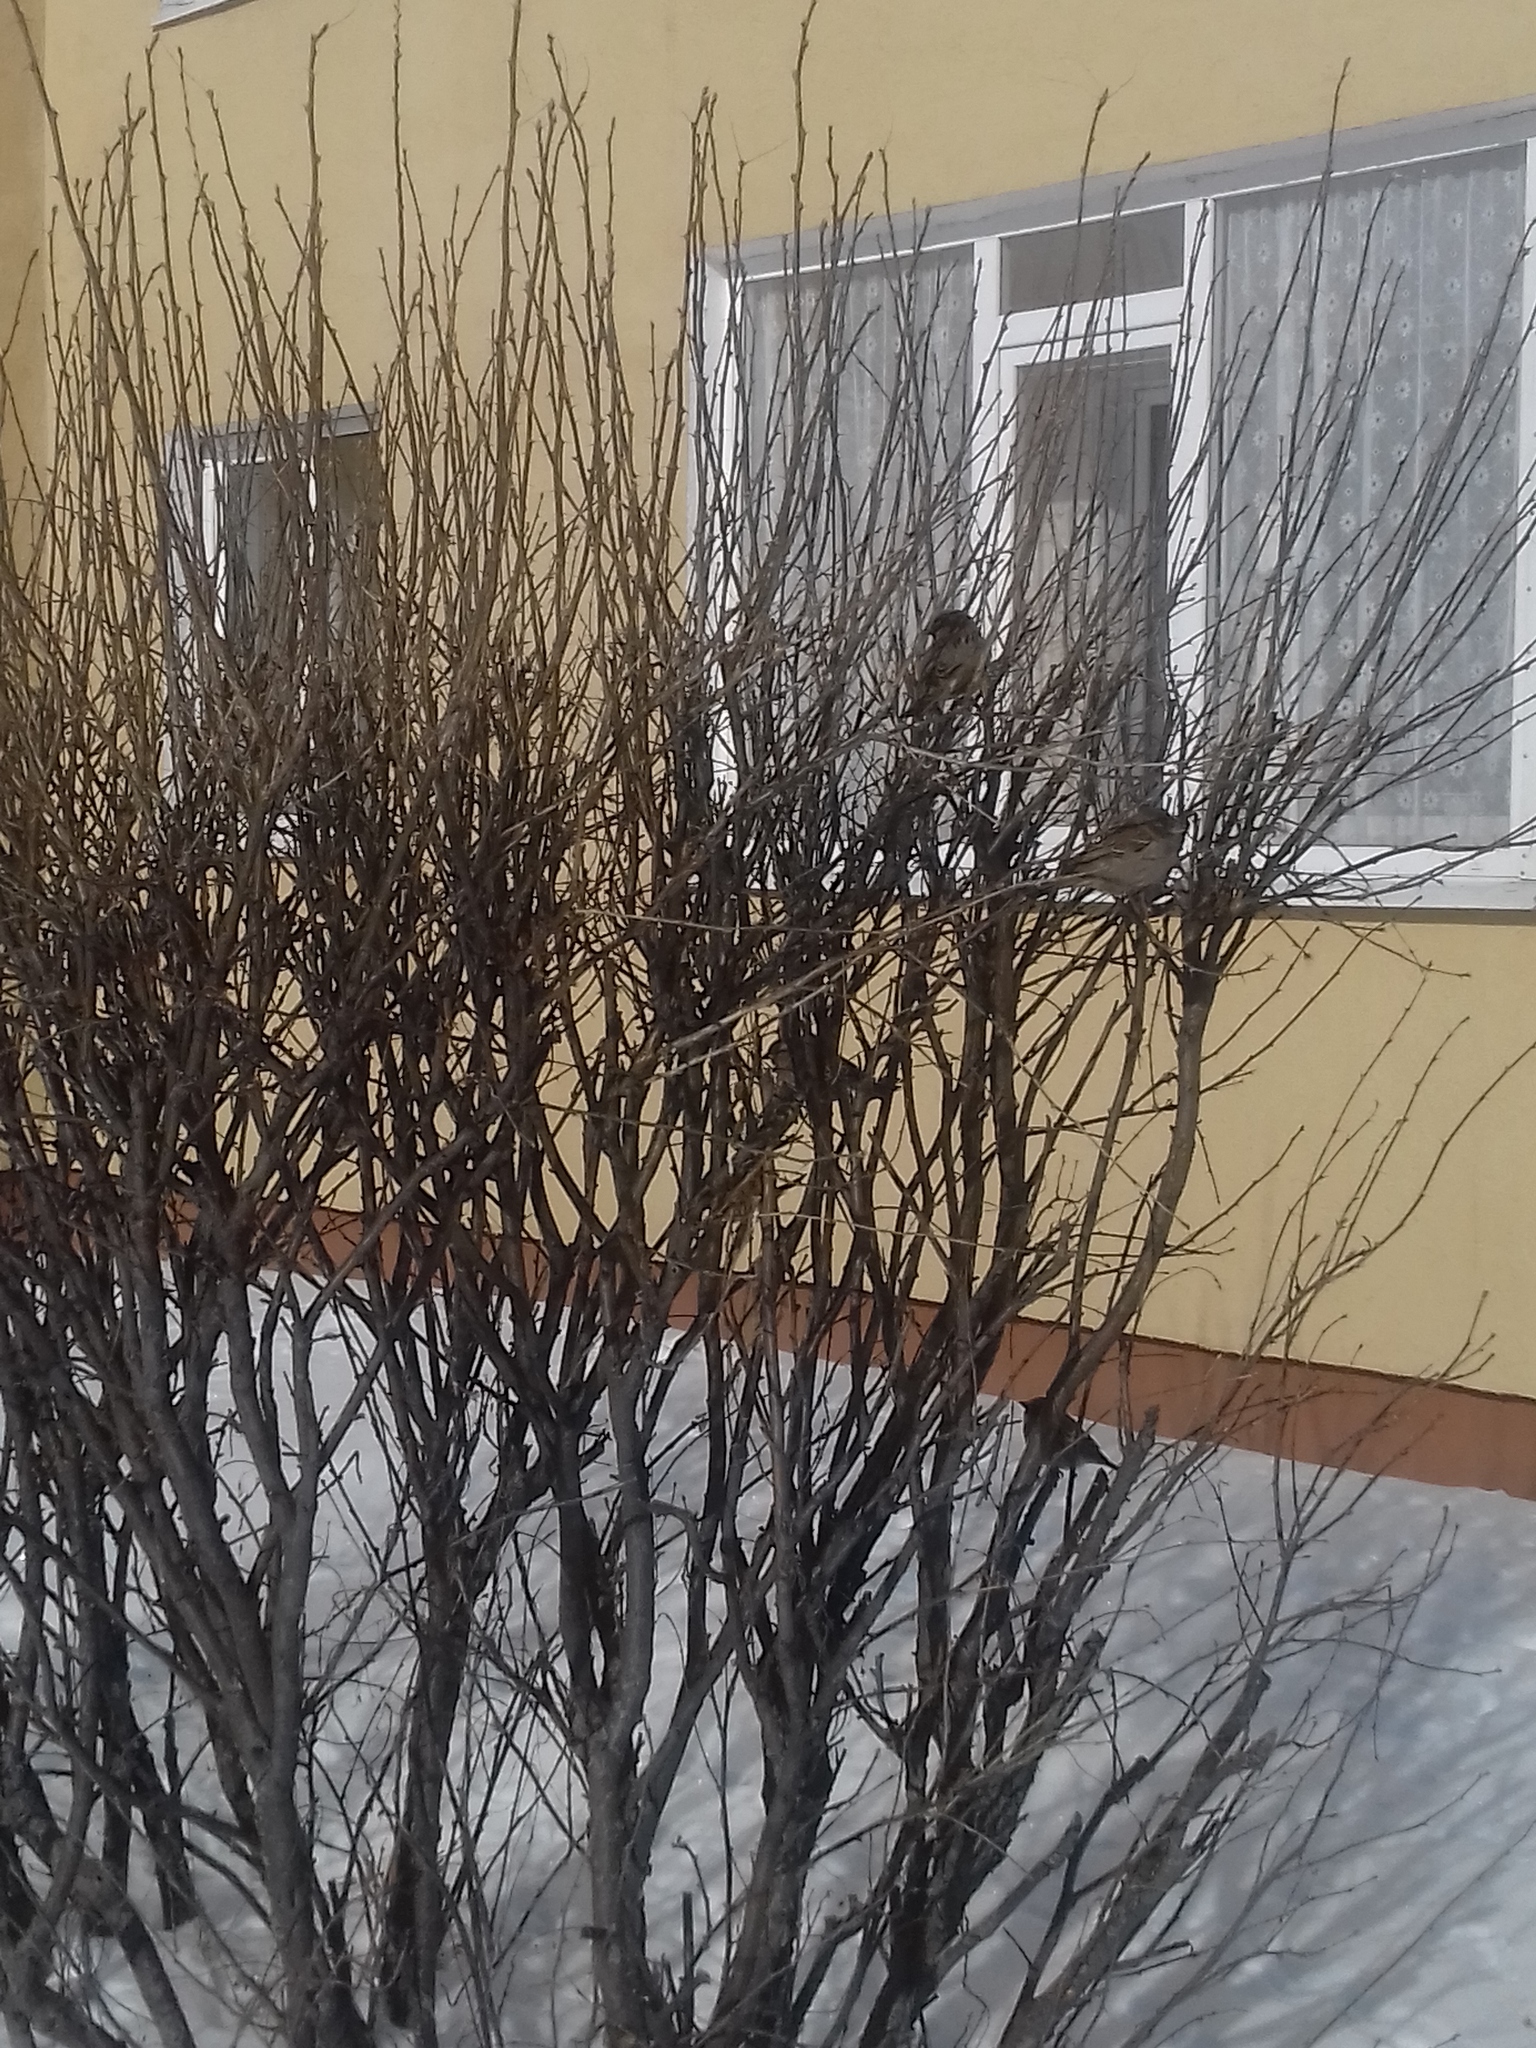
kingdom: Animalia
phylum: Chordata
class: Aves
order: Passeriformes
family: Passeridae
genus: Passer
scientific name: Passer domesticus
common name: House sparrow
